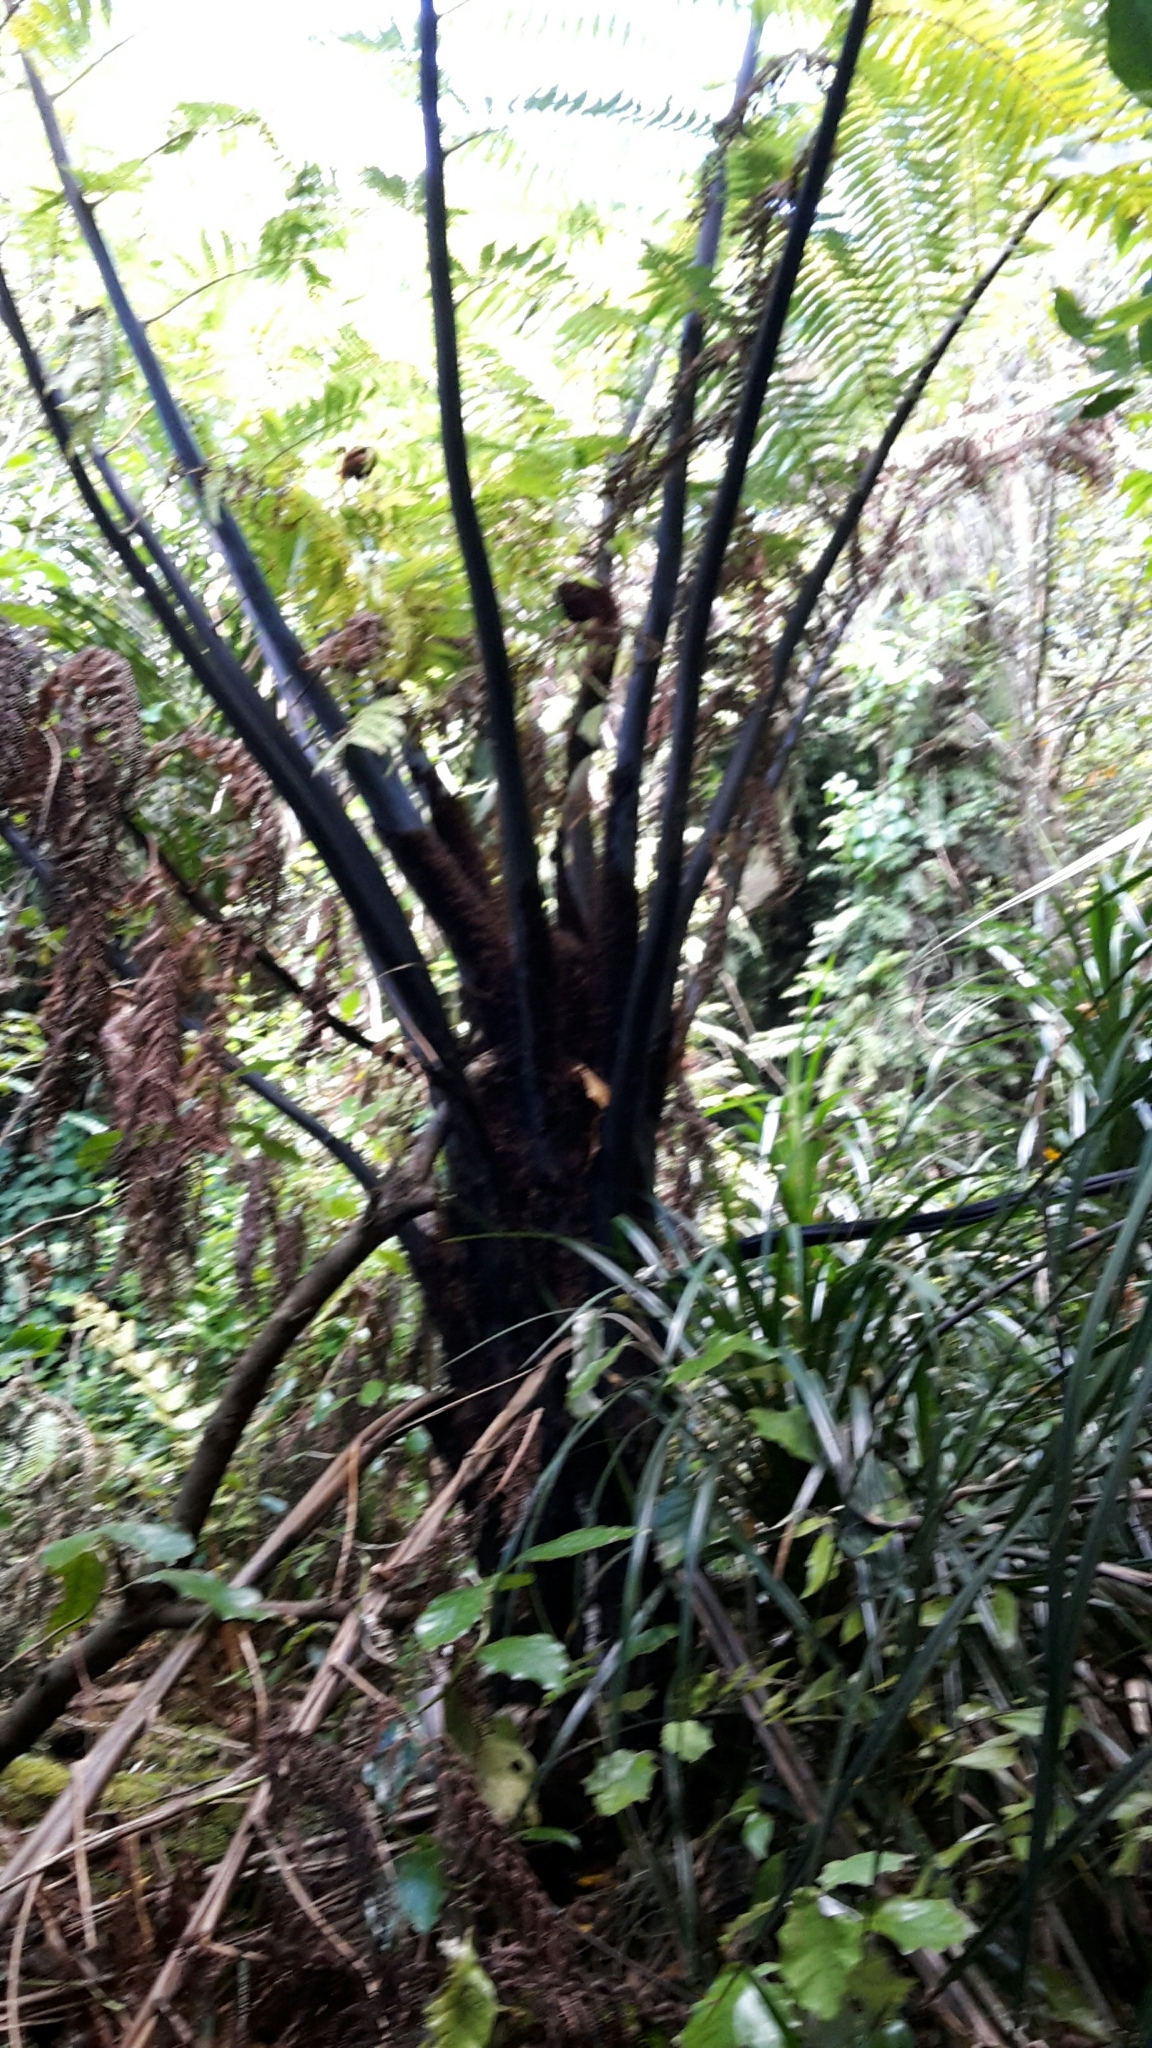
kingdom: Plantae
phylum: Tracheophyta
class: Polypodiopsida
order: Cyatheales
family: Cyatheaceae
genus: Sphaeropteris
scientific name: Sphaeropteris medullaris
